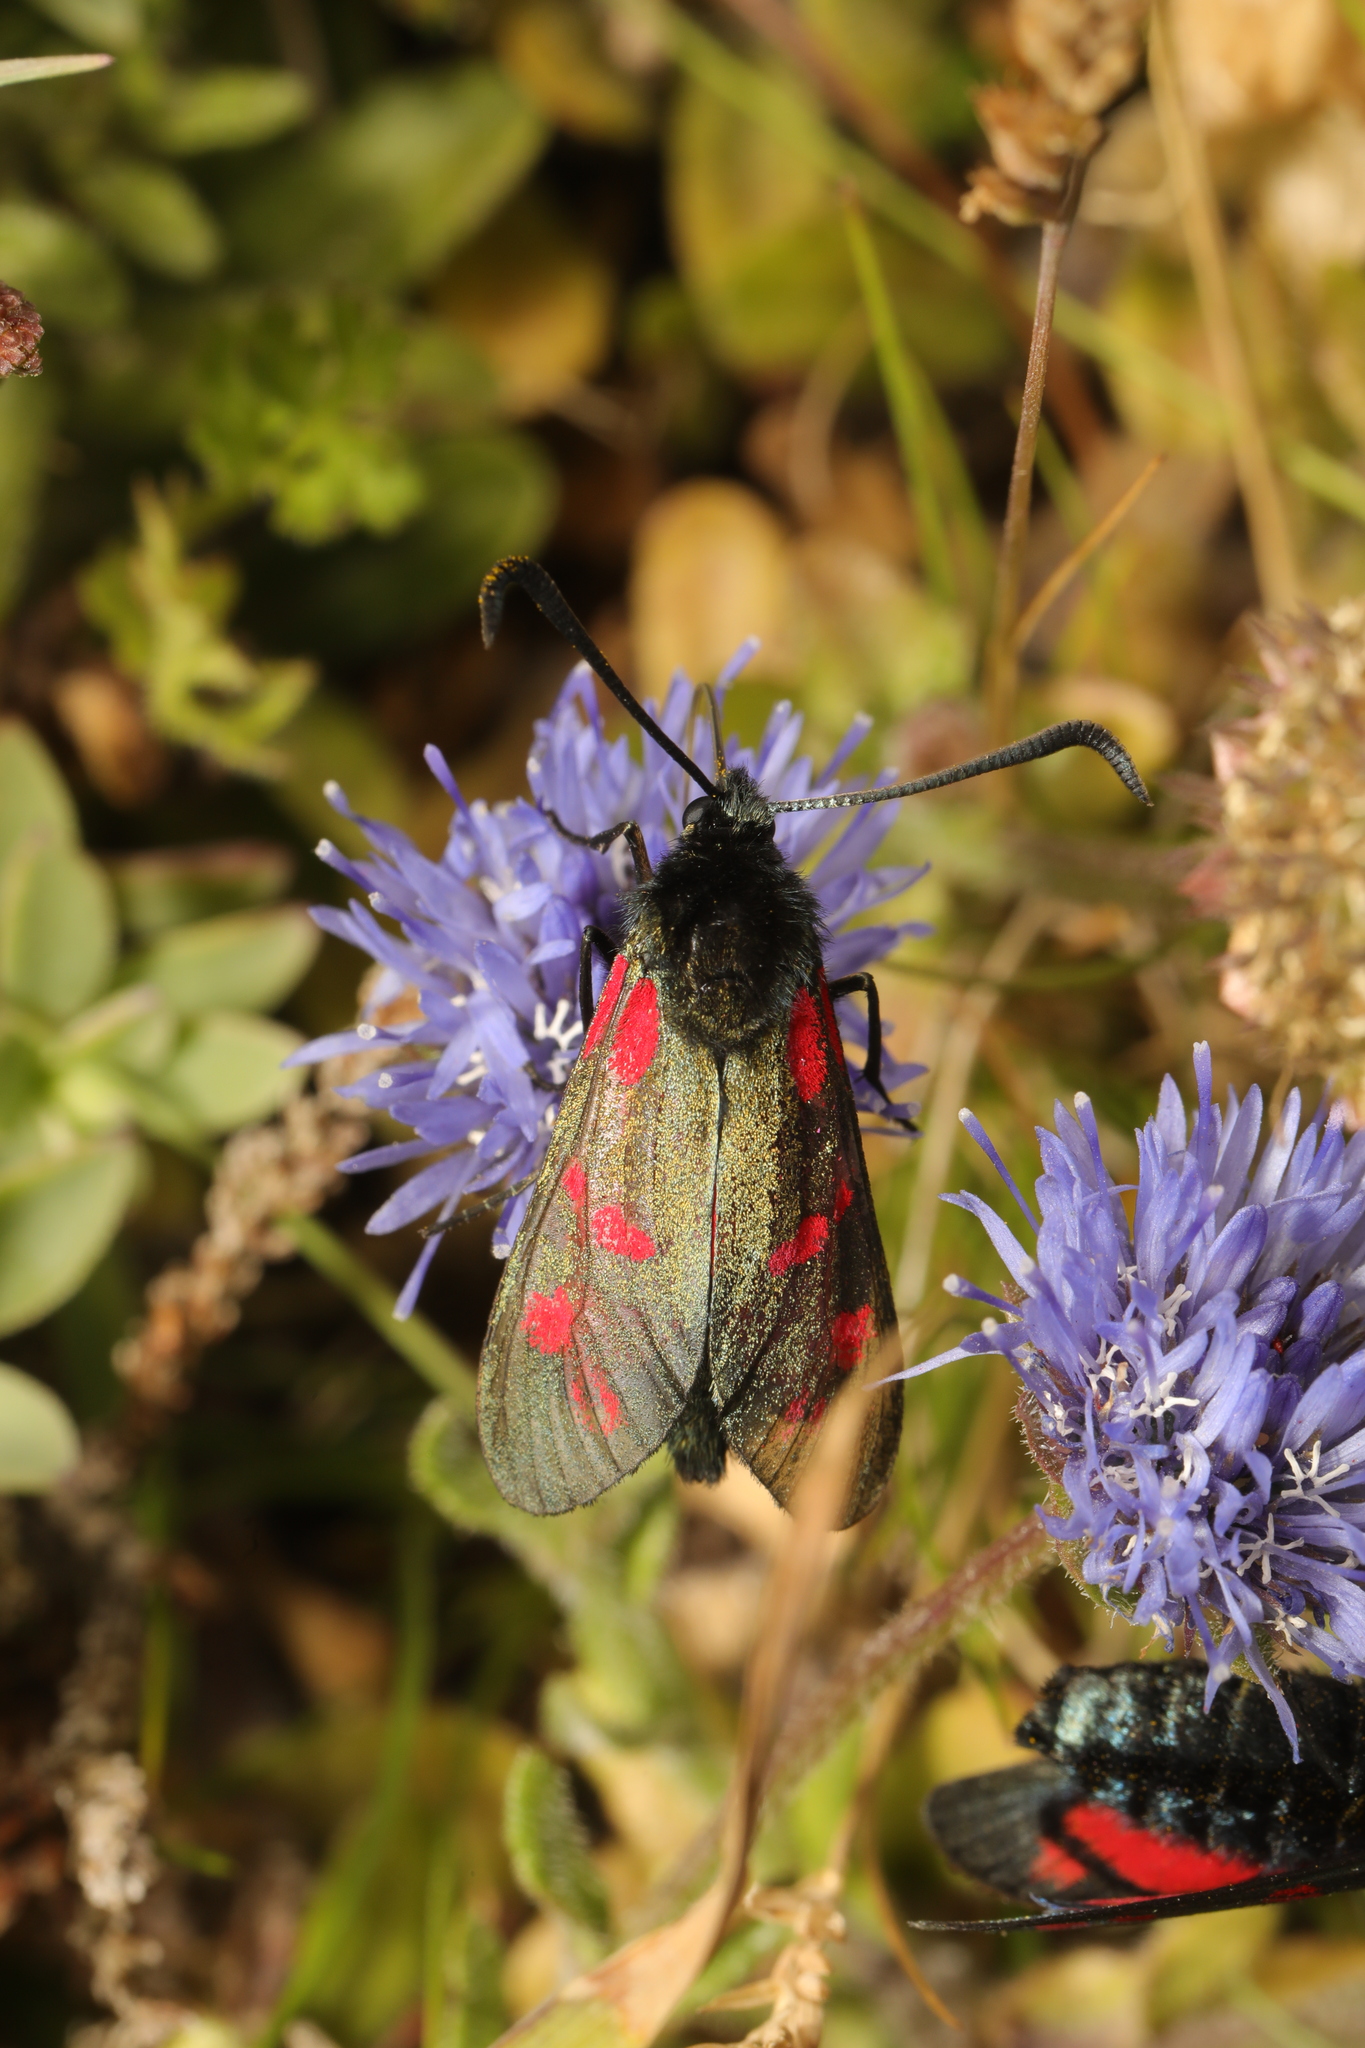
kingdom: Animalia
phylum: Arthropoda
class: Insecta
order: Lepidoptera
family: Zygaenidae
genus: Zygaena
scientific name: Zygaena filipendulae
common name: Six-spot burnet
